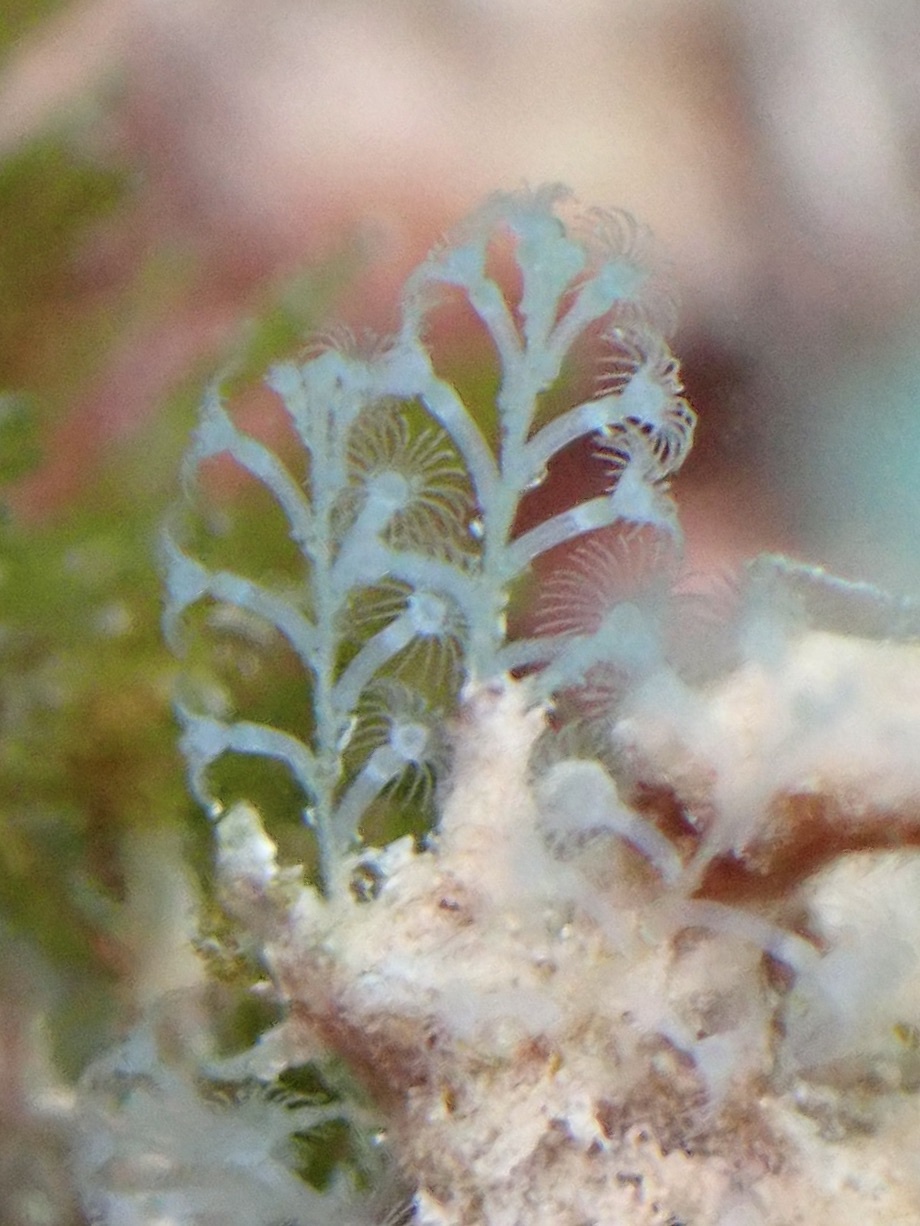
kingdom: Animalia
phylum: Cnidaria
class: Hydrozoa
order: Leptothecata
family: Haleciidae
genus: Nemalecium
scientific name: Nemalecium lighti
